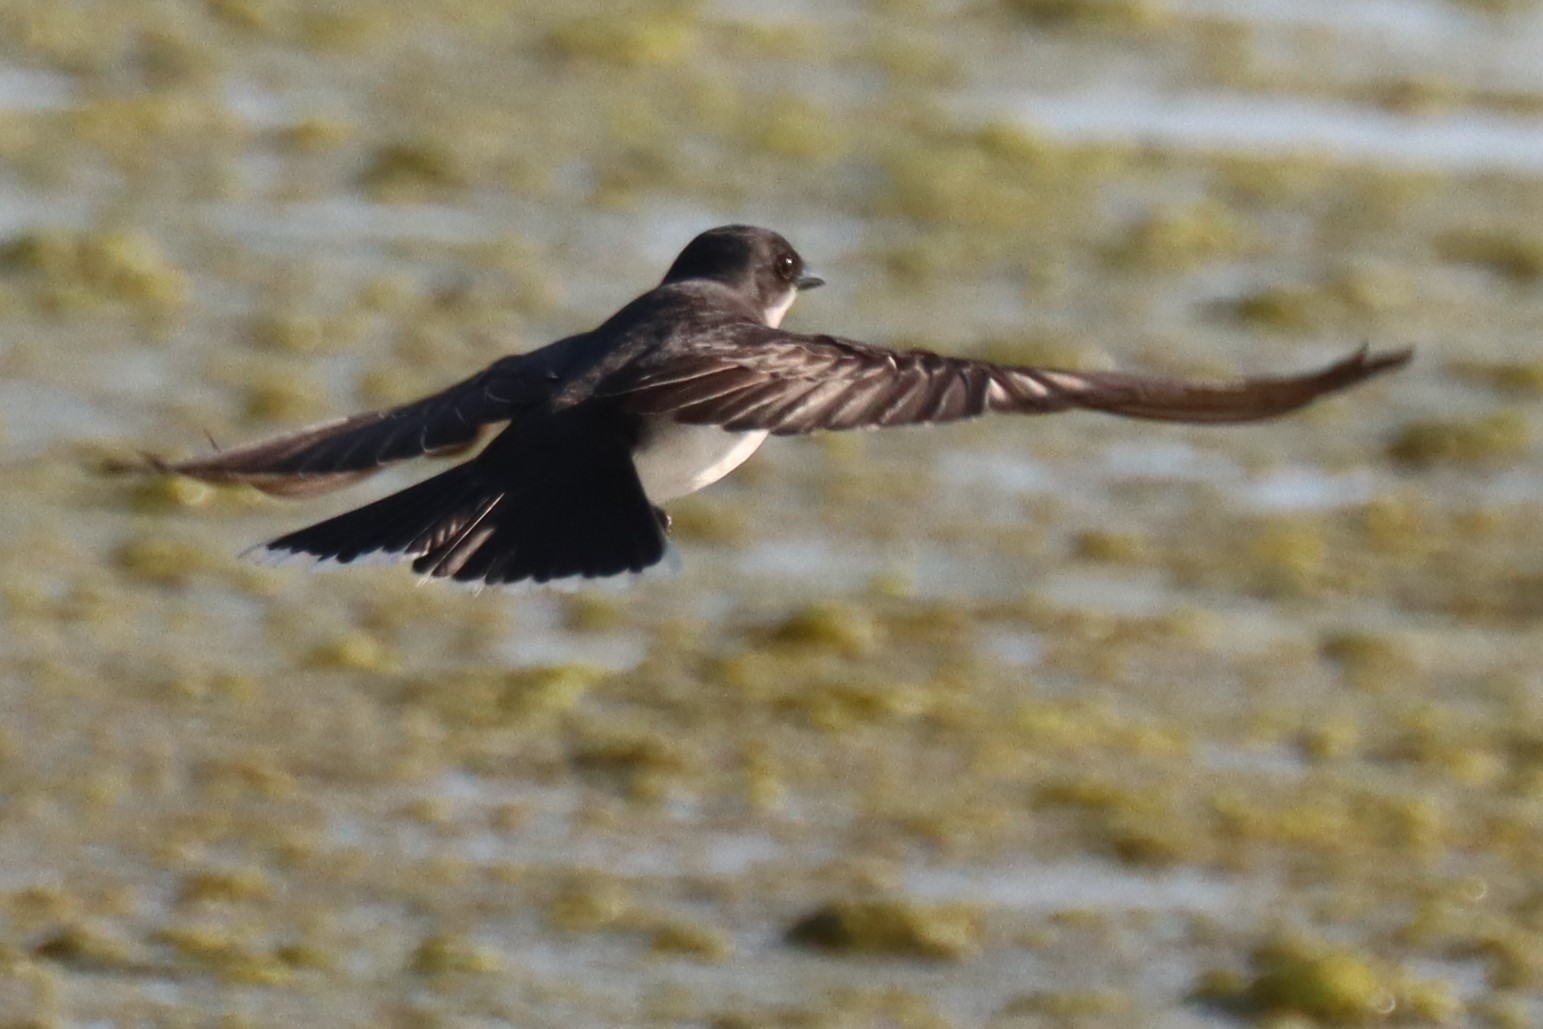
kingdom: Animalia
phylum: Chordata
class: Aves
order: Passeriformes
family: Tyrannidae
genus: Tyrannus
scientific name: Tyrannus tyrannus
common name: Eastern kingbird
